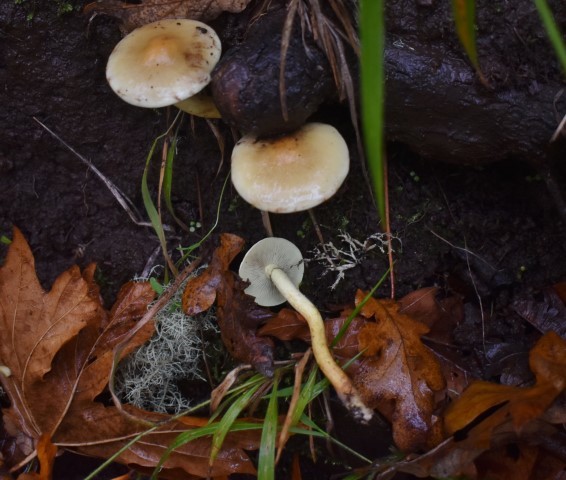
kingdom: Fungi
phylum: Basidiomycota
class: Agaricomycetes
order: Agaricales
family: Strophariaceae
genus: Hypholoma
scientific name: Hypholoma fasciculare
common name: Sulphur tuft
